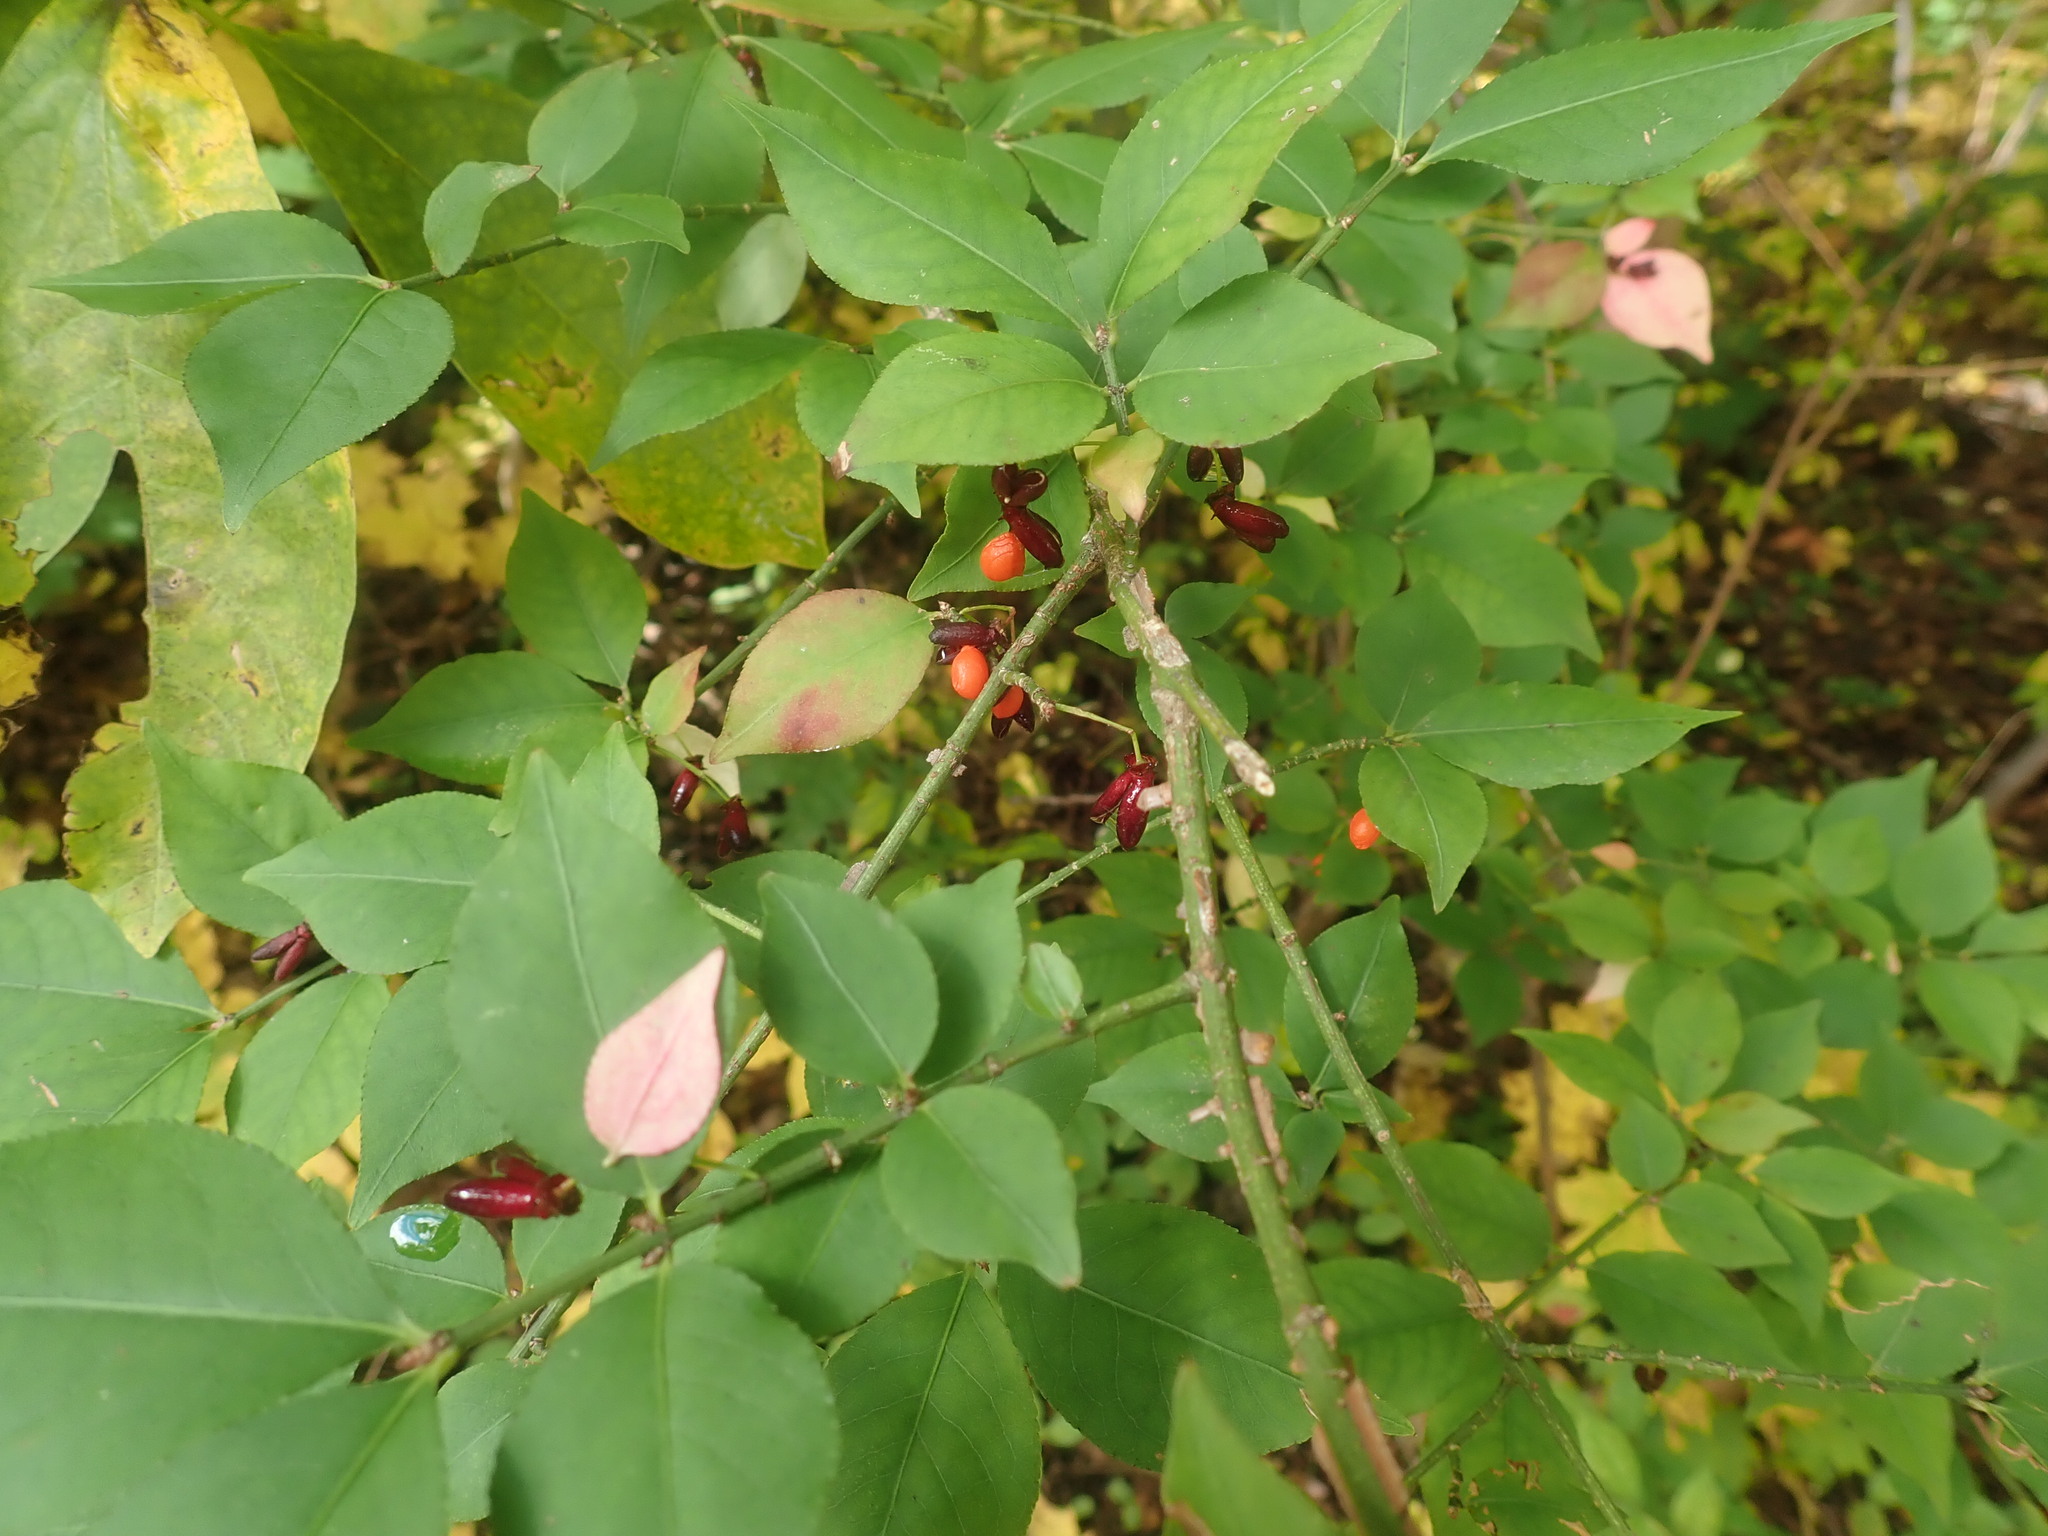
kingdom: Plantae
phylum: Tracheophyta
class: Magnoliopsida
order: Celastrales
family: Celastraceae
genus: Euonymus
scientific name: Euonymus alatus
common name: Winged euonymus
